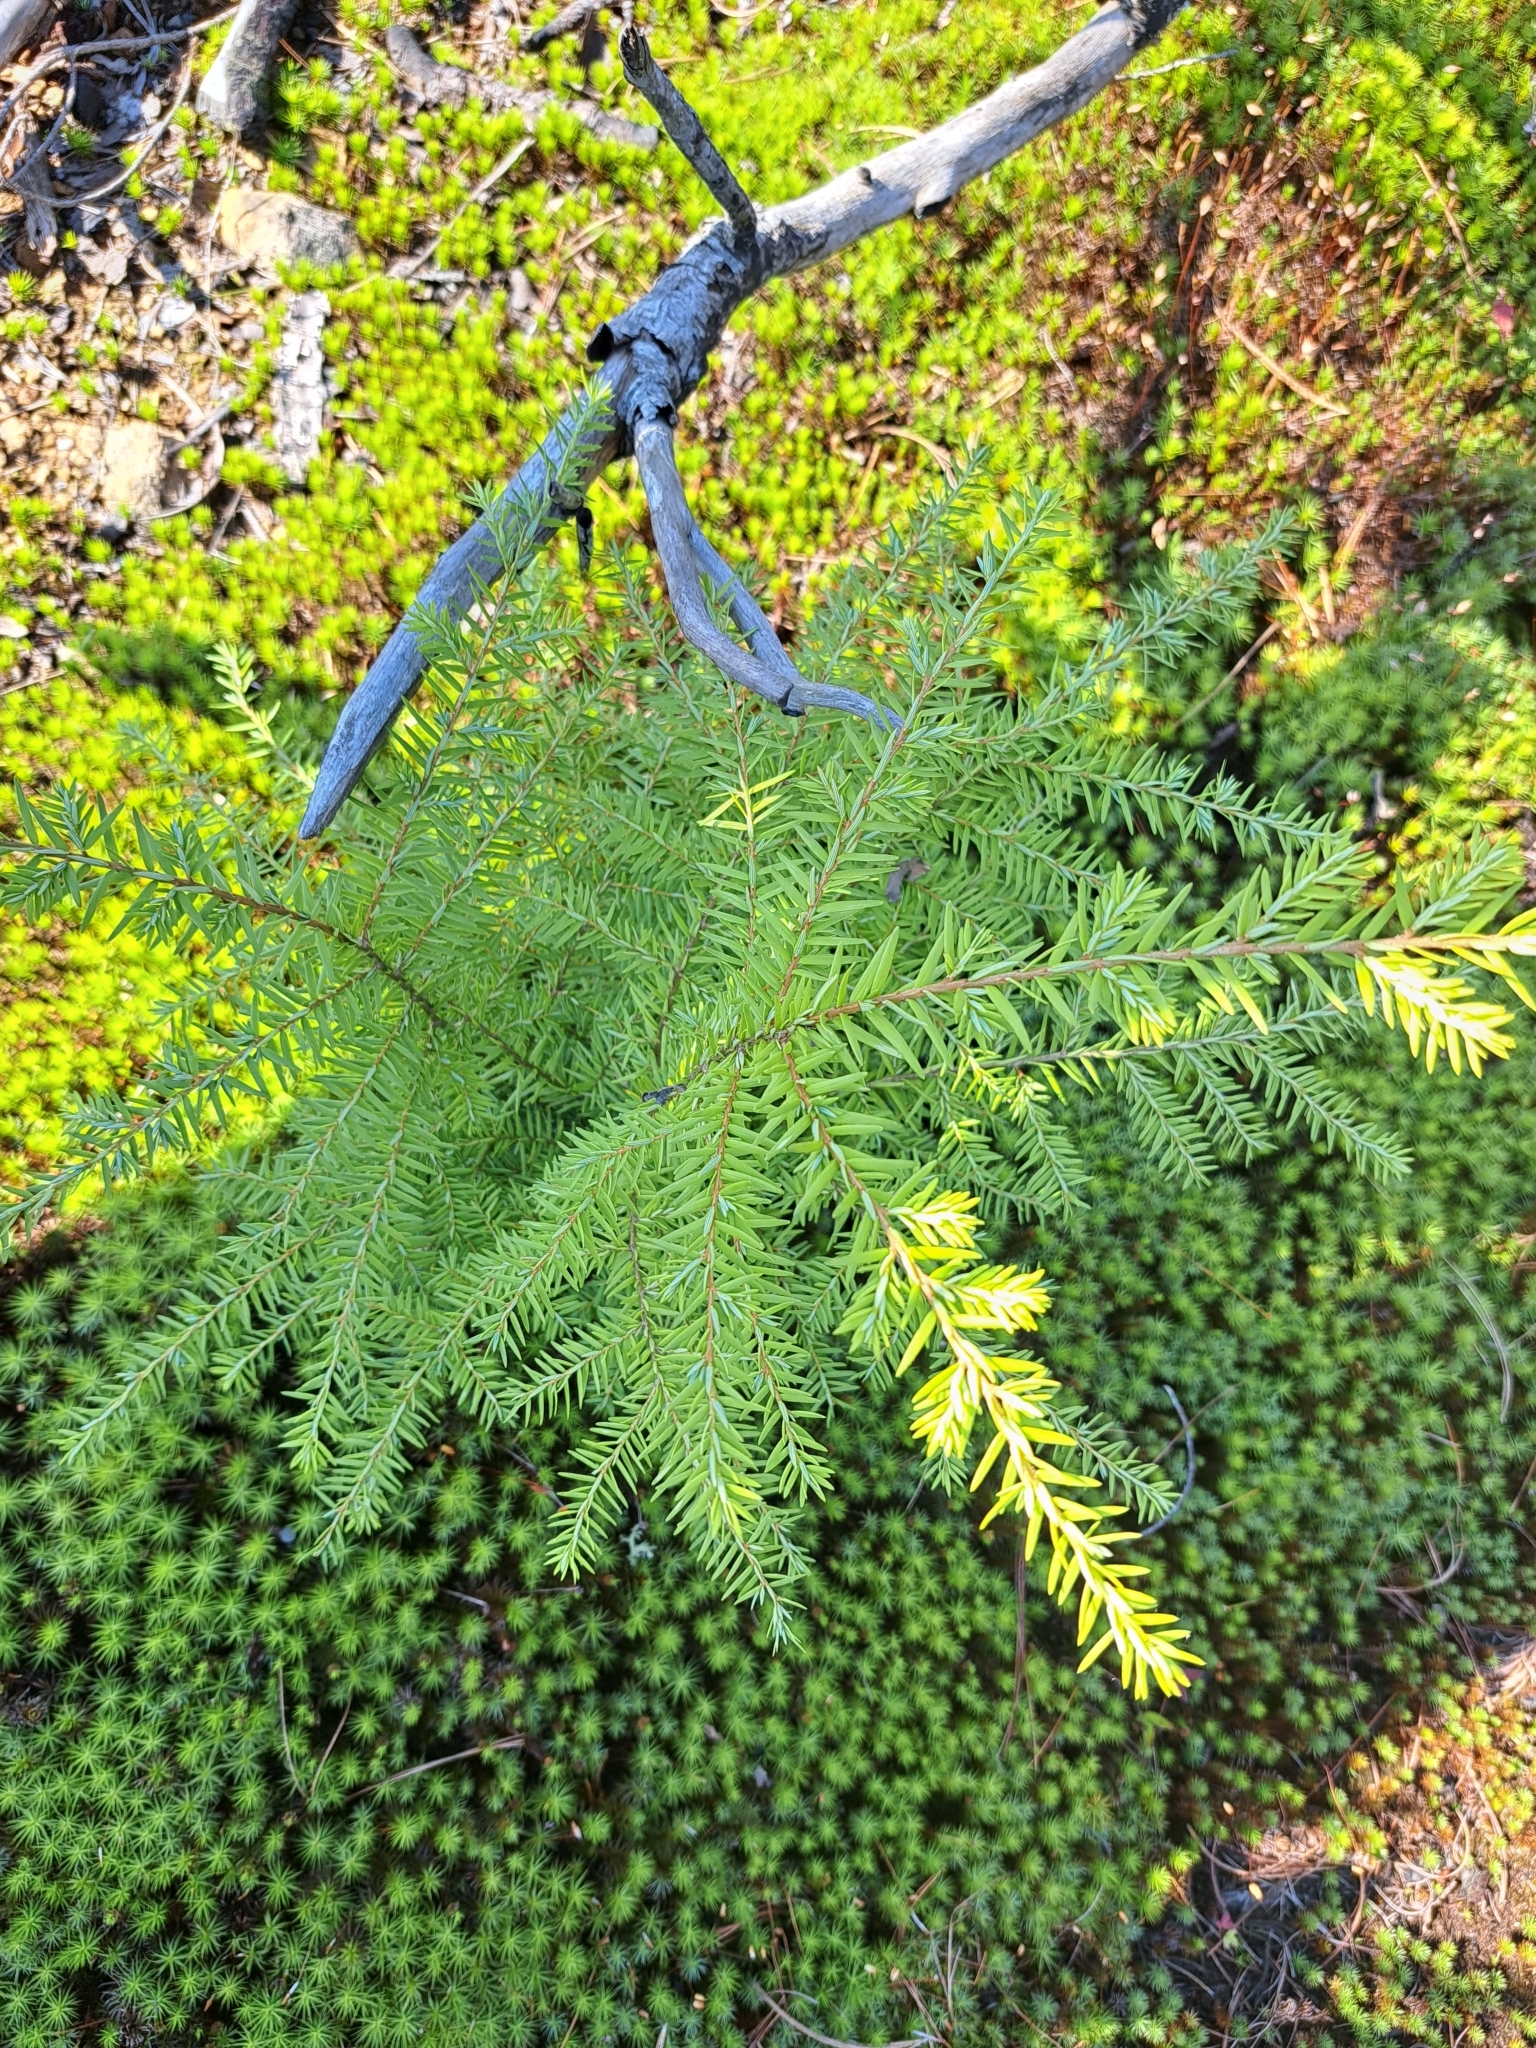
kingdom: Plantae
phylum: Tracheophyta
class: Pinopsida
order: Pinales
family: Pinaceae
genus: Tsuga
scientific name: Tsuga canadensis
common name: Eastern hemlock
